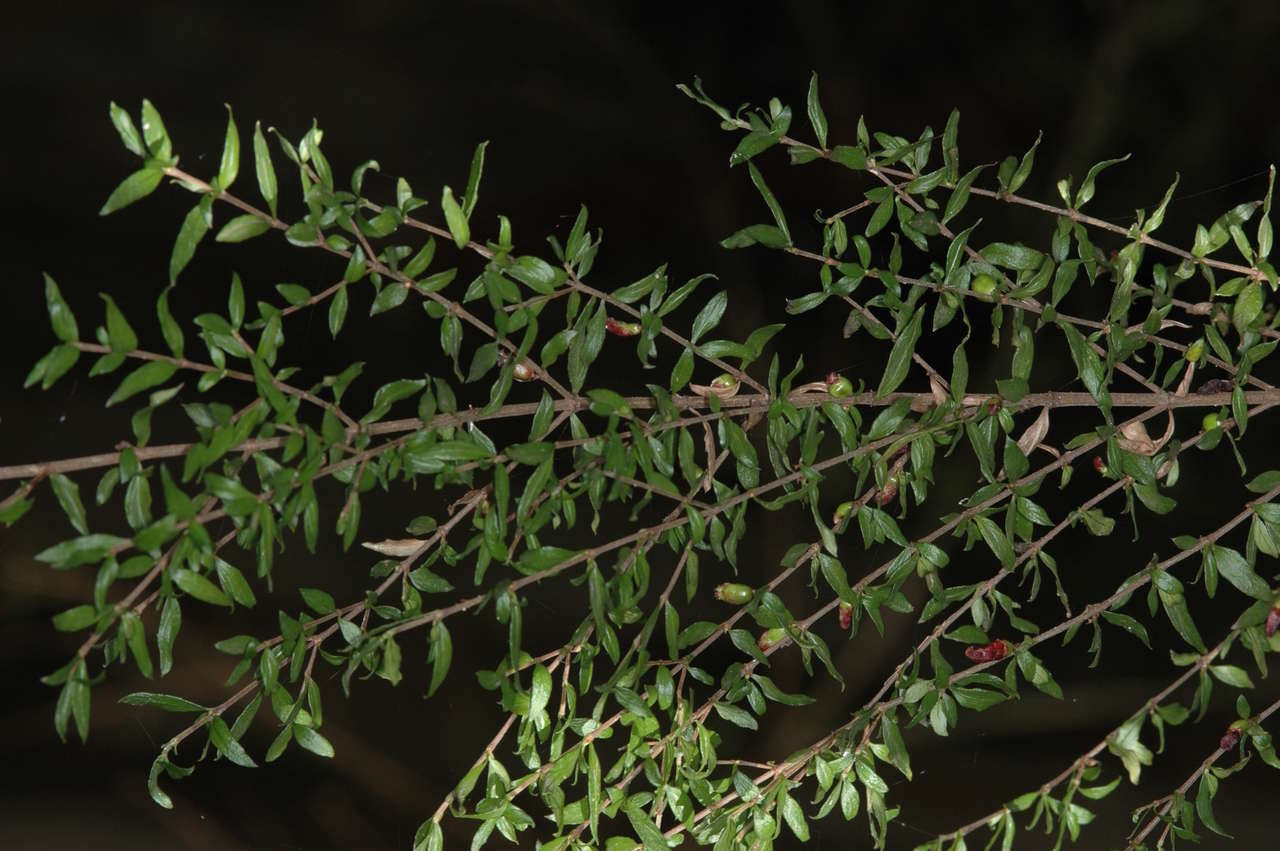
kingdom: Plantae
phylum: Tracheophyta
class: Magnoliopsida
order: Gentianales
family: Rubiaceae
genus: Coprosma
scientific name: Coprosma quadrifida
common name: Prickly currantbush
